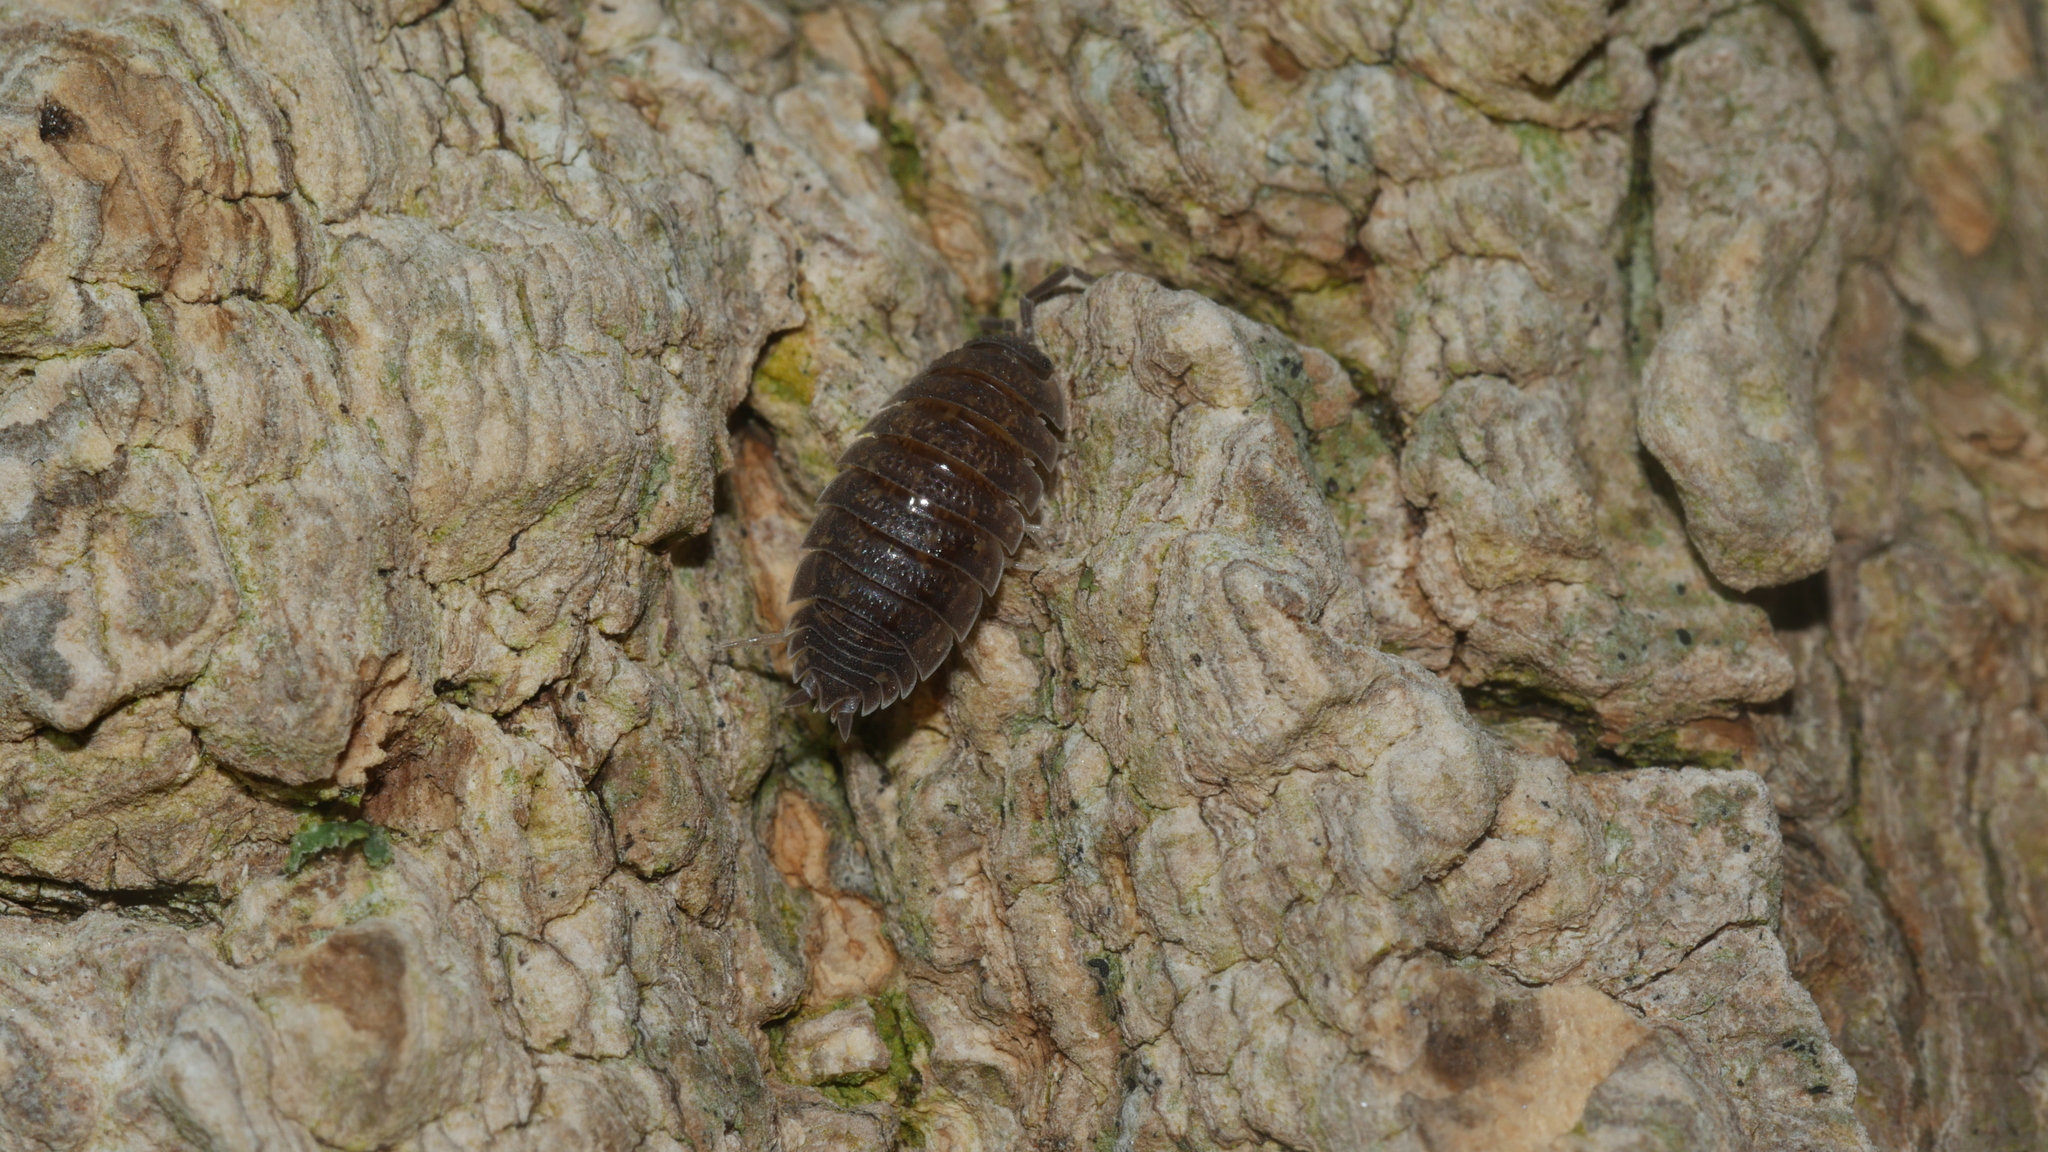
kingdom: Animalia
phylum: Arthropoda
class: Malacostraca
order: Isopoda
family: Porcellionidae
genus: Porcellio
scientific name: Porcellio scaber
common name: Common rough woodlouse
